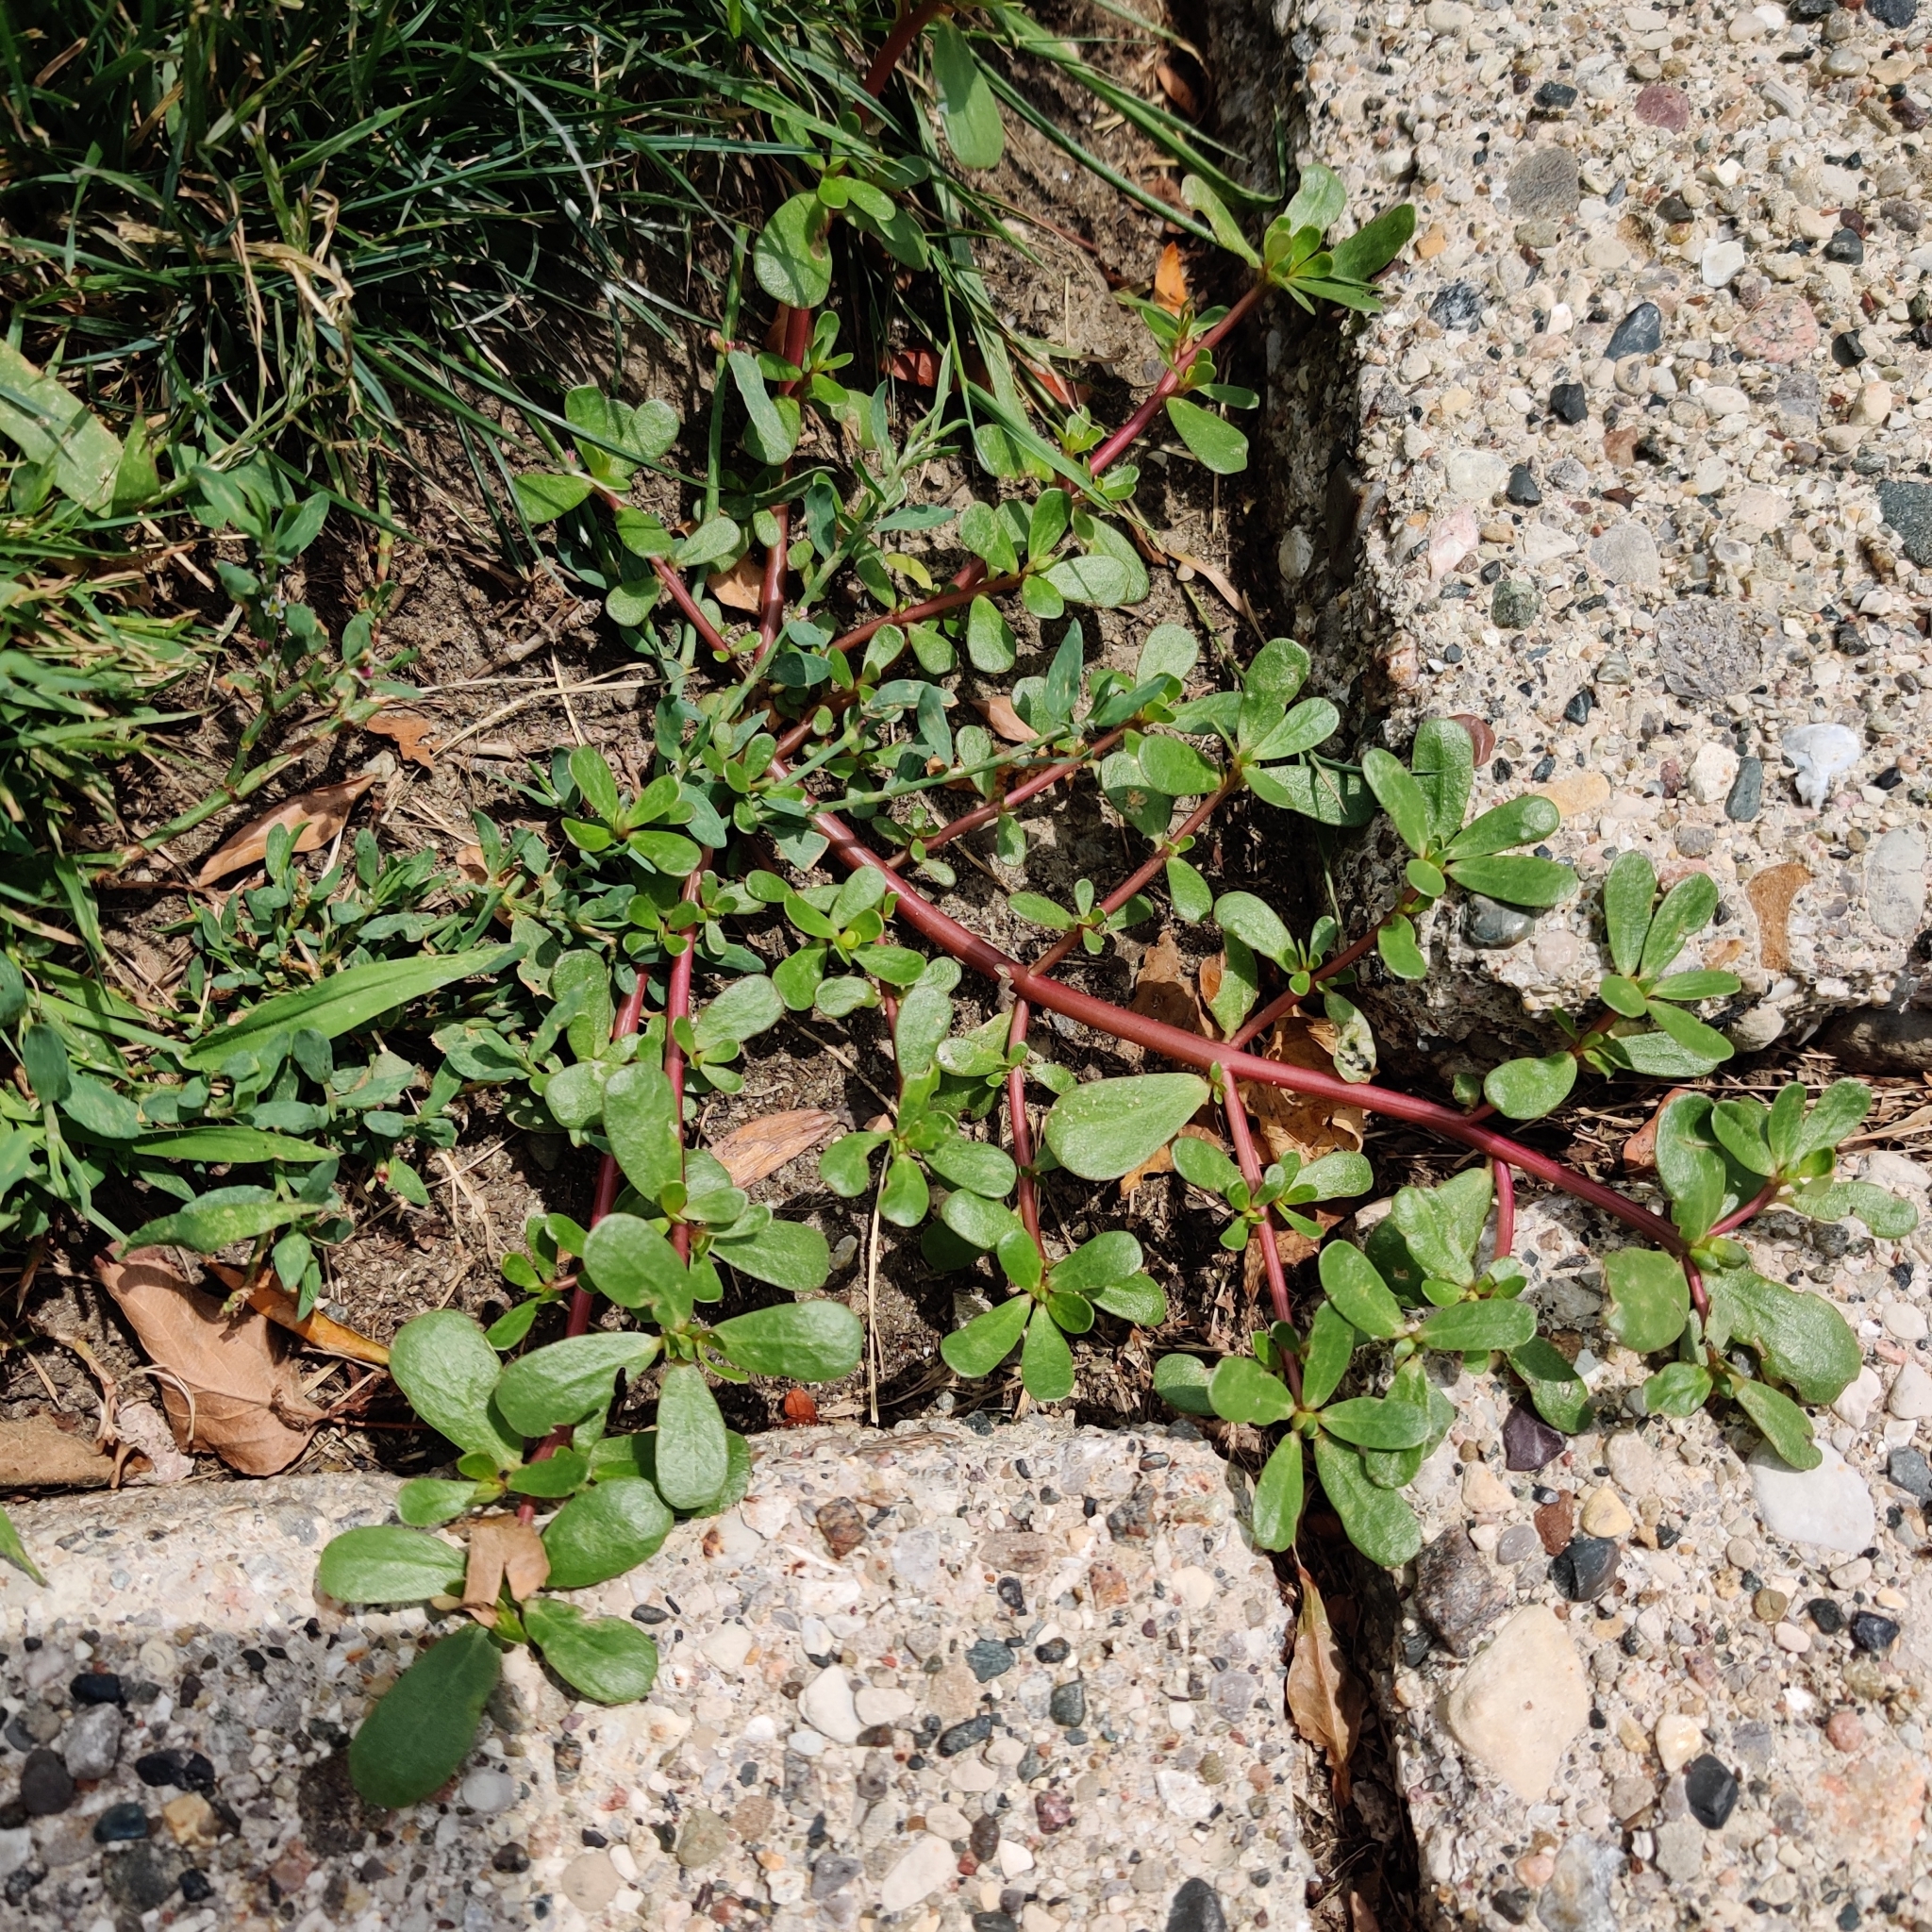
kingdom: Plantae
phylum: Tracheophyta
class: Magnoliopsida
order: Caryophyllales
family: Portulacaceae
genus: Portulaca
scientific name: Portulaca oleracea
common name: Common purslane
